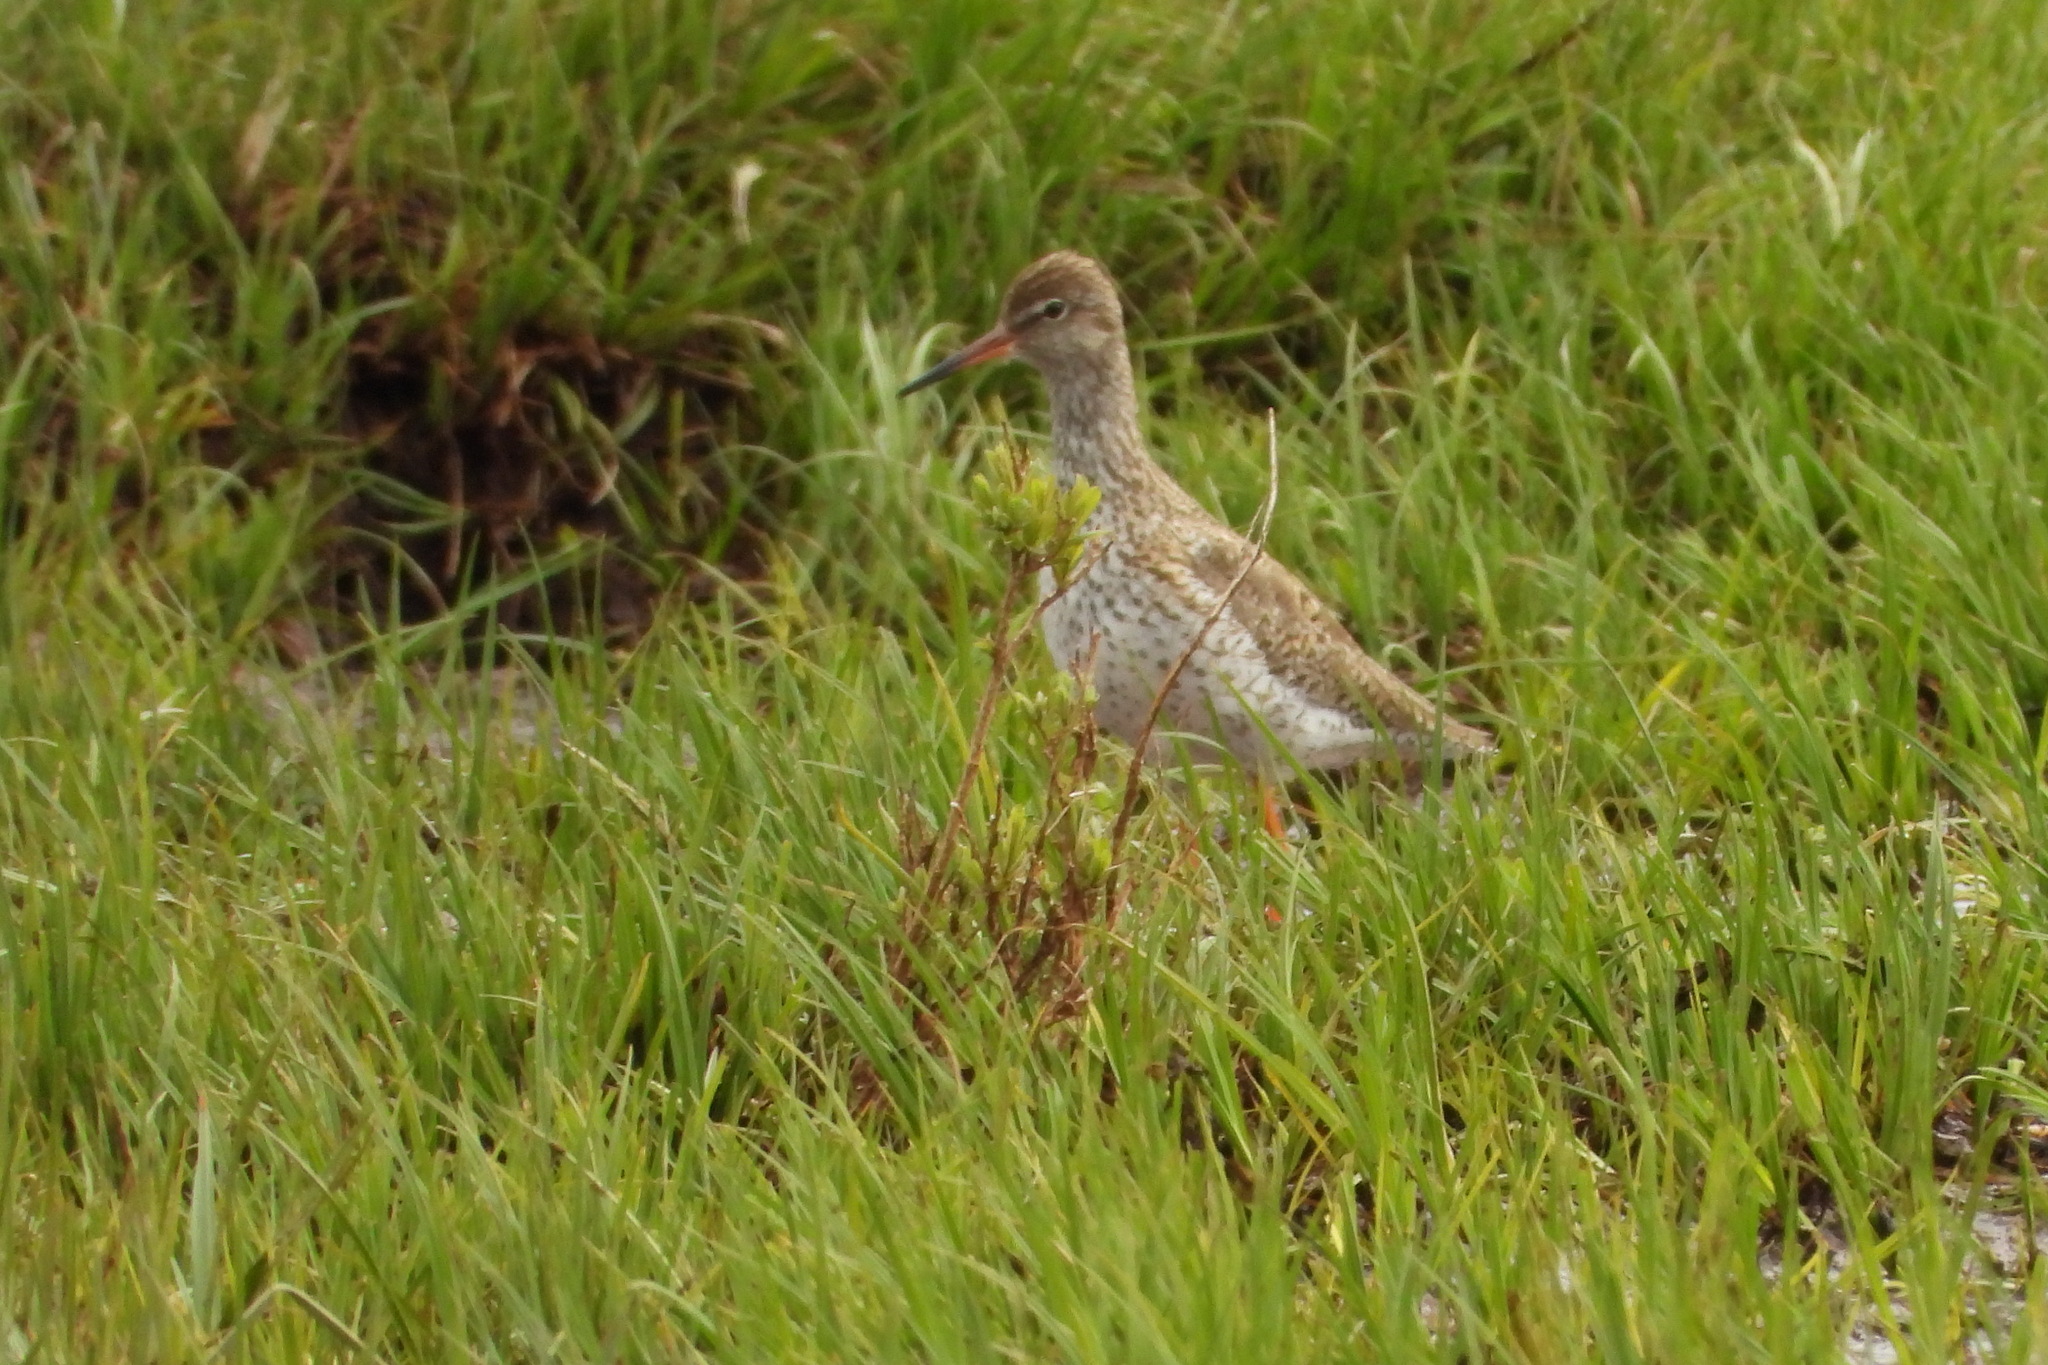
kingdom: Animalia
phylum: Chordata
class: Aves
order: Charadriiformes
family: Scolopacidae
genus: Tringa
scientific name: Tringa totanus
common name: Common redshank
